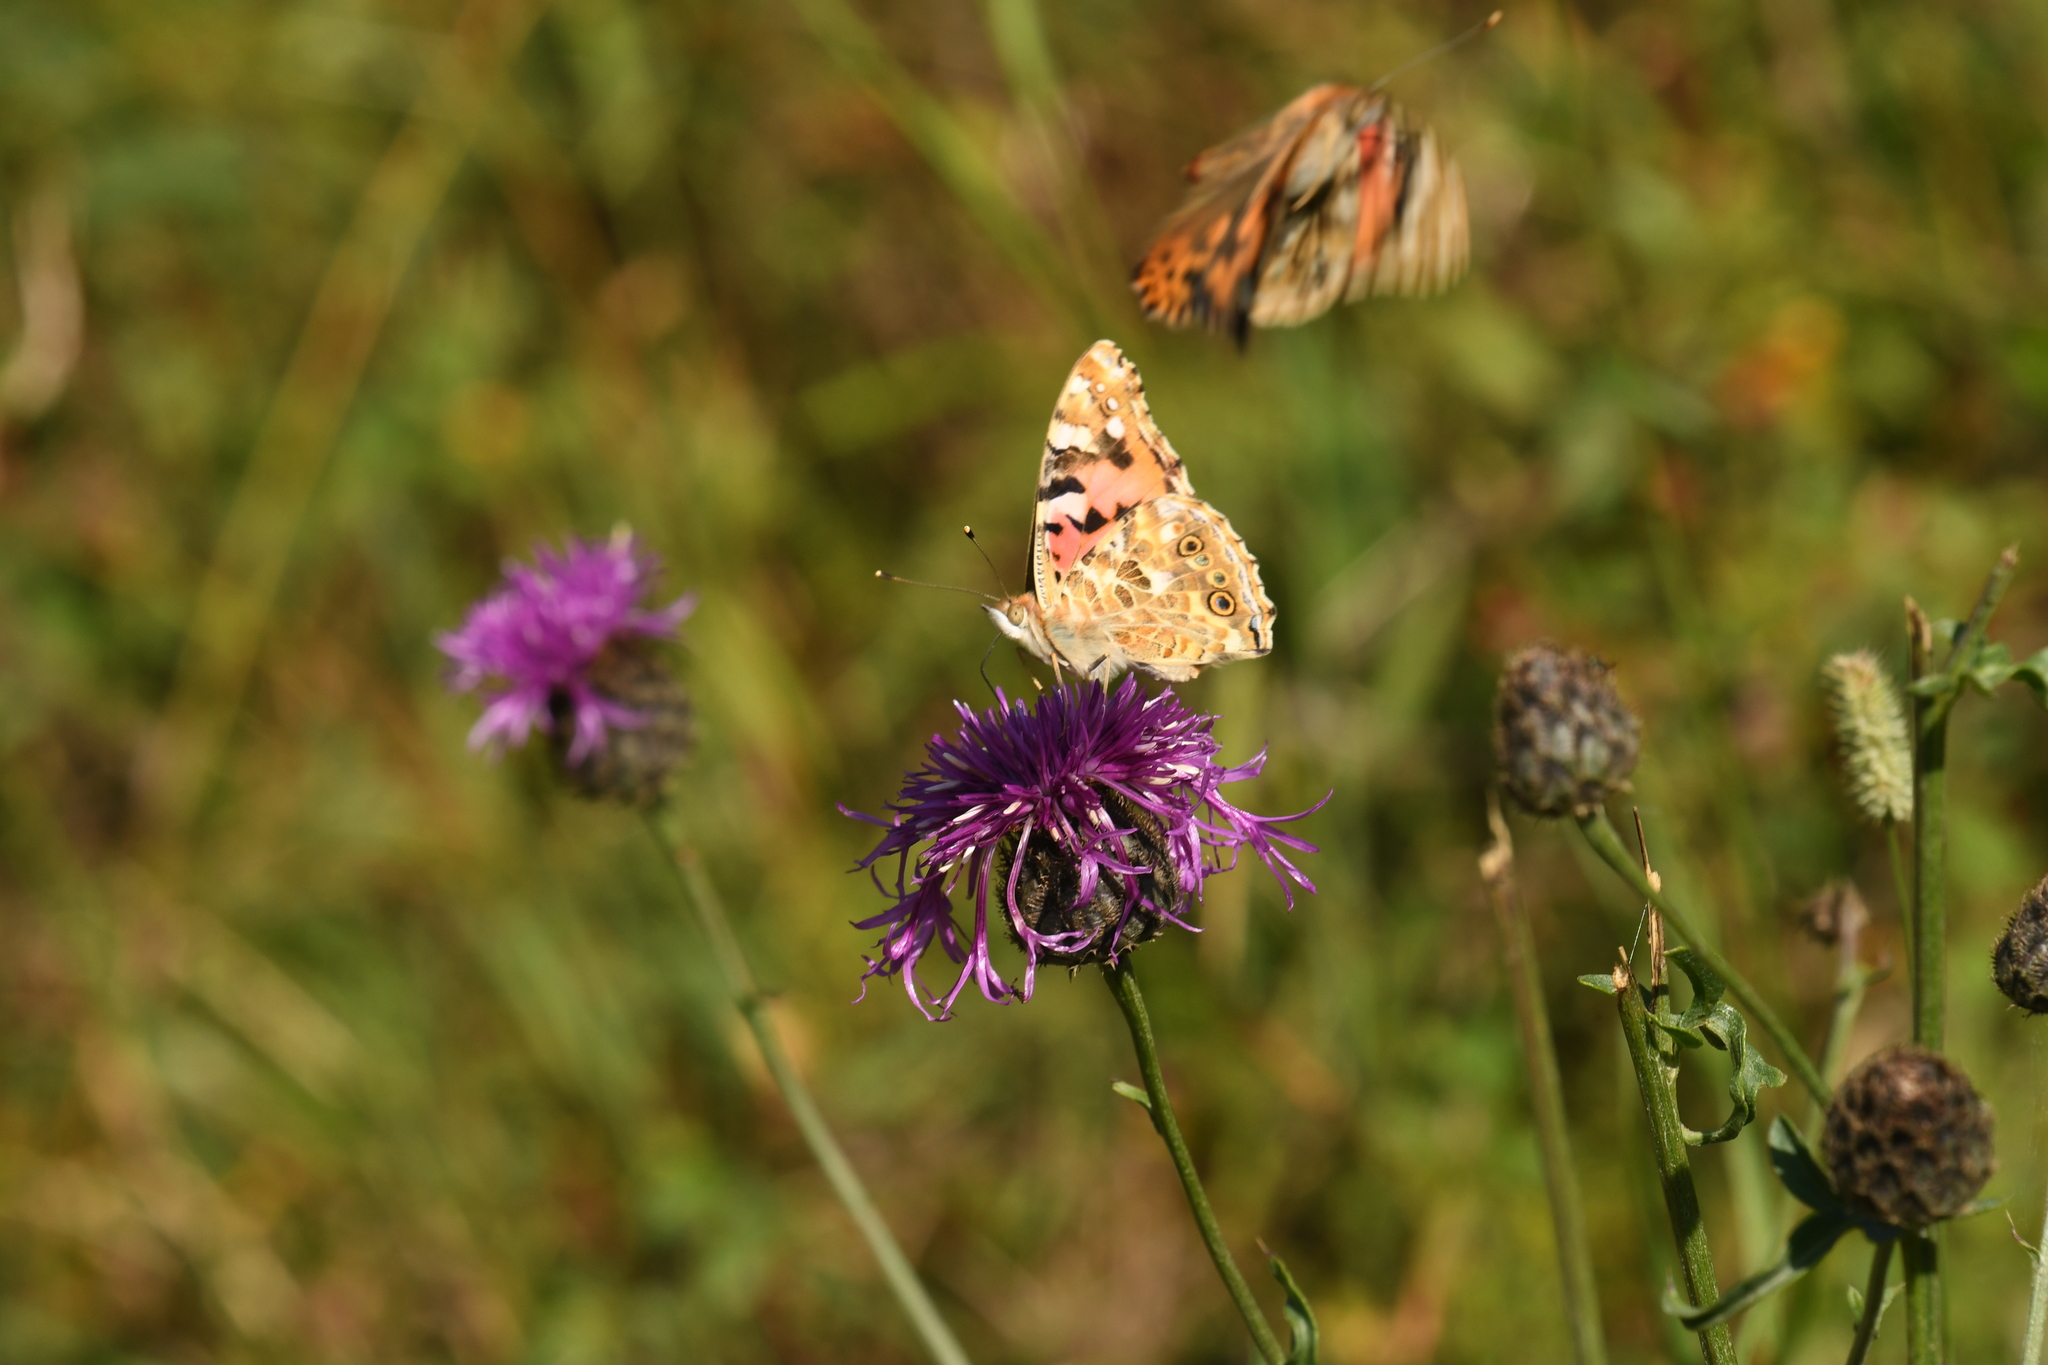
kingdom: Animalia
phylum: Arthropoda
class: Insecta
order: Lepidoptera
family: Nymphalidae
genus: Vanessa
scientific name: Vanessa cardui
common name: Painted lady
